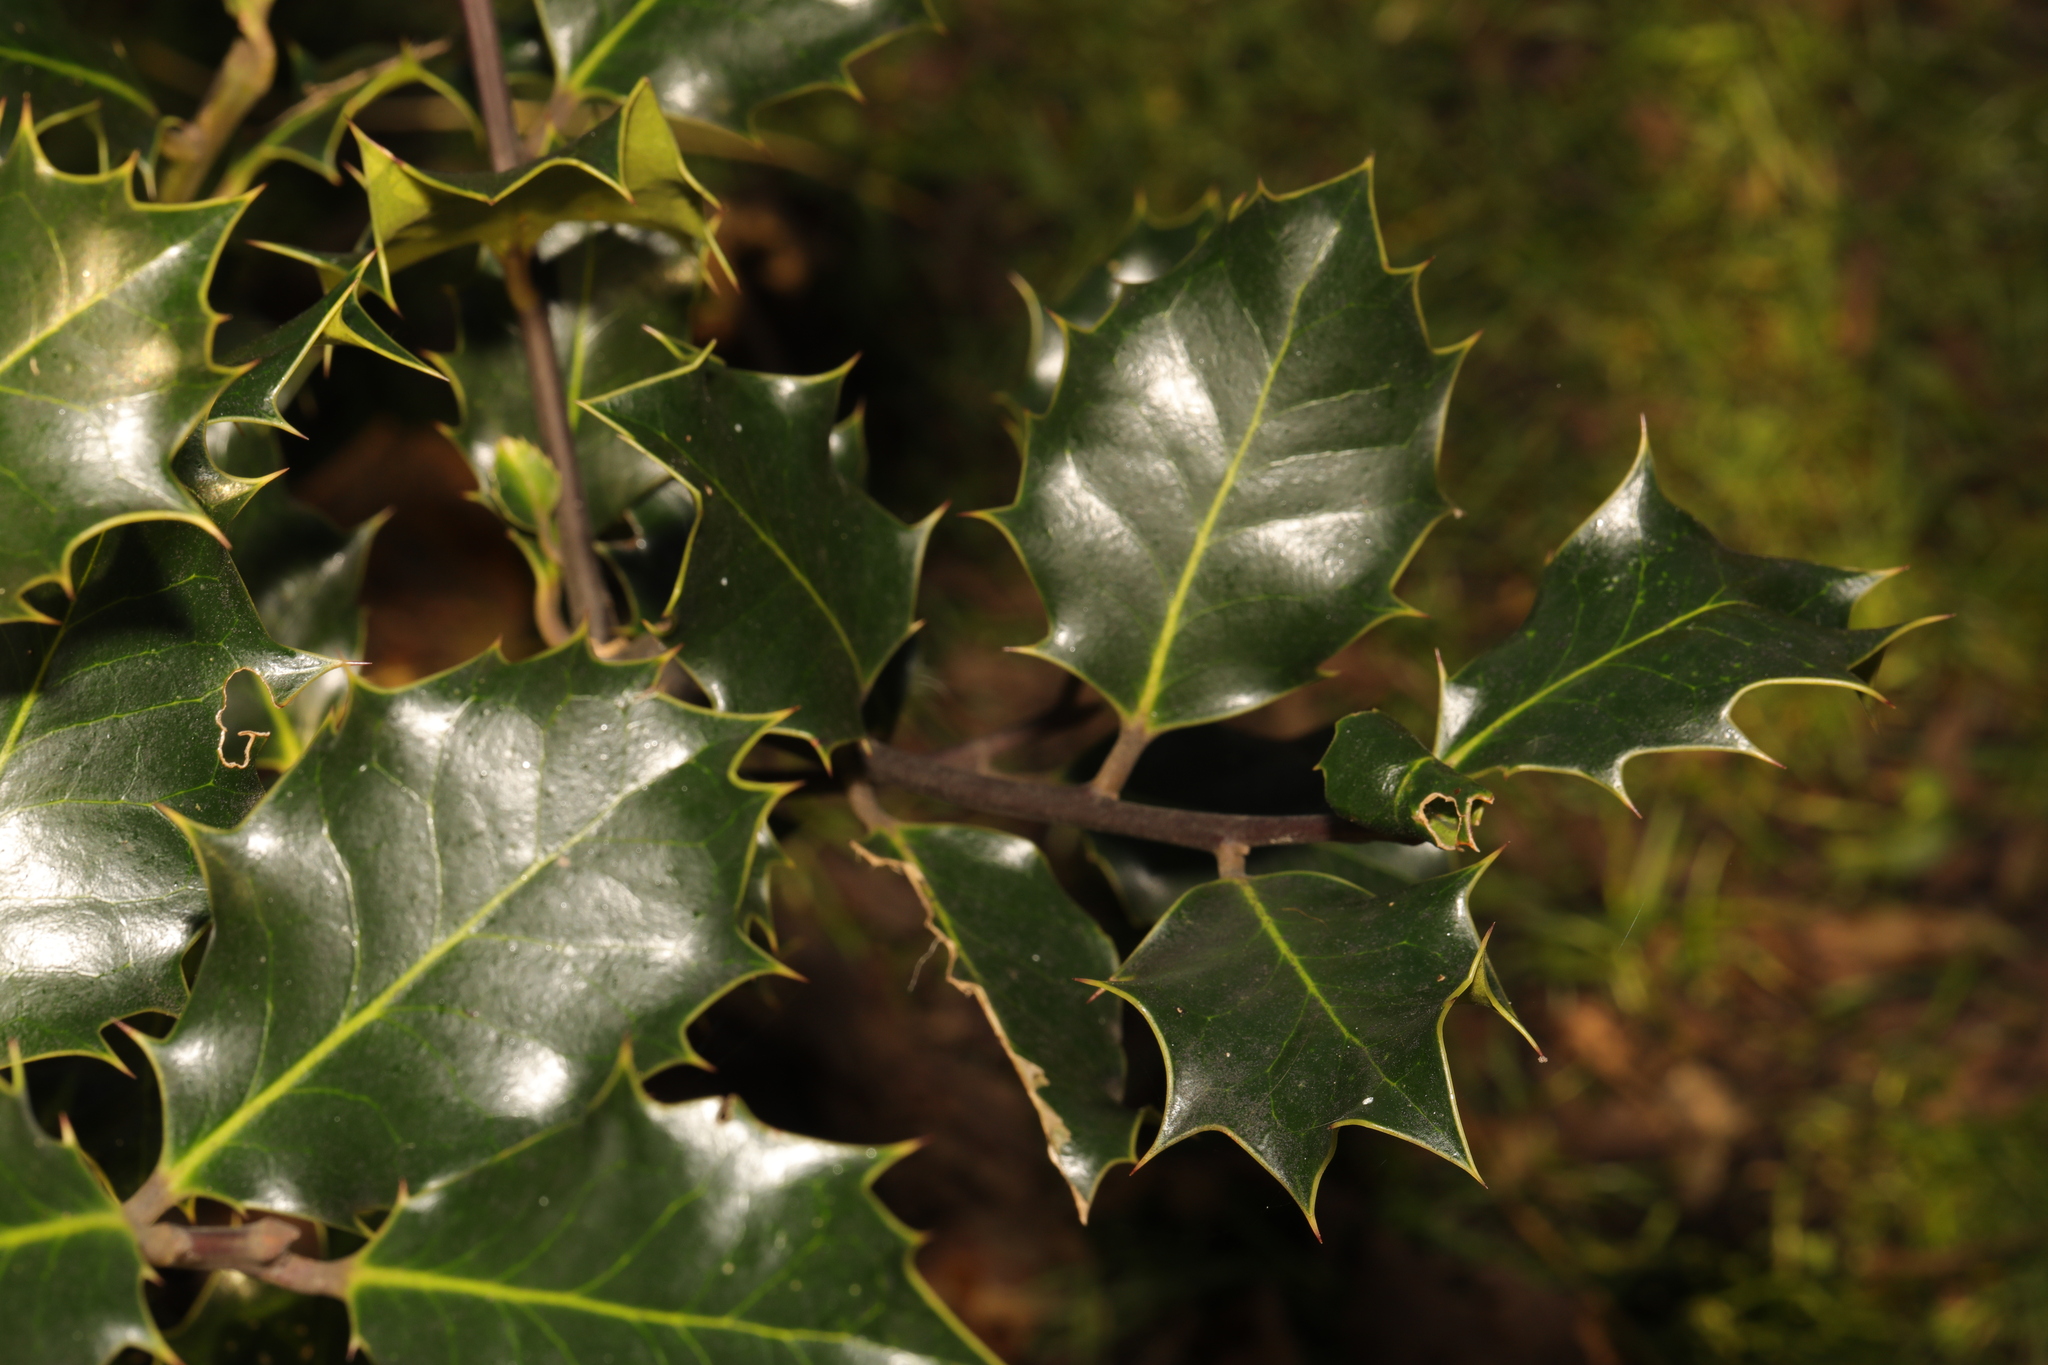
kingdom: Plantae
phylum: Tracheophyta
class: Magnoliopsida
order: Aquifoliales
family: Aquifoliaceae
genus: Ilex
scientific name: Ilex aquifolium
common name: English holly
